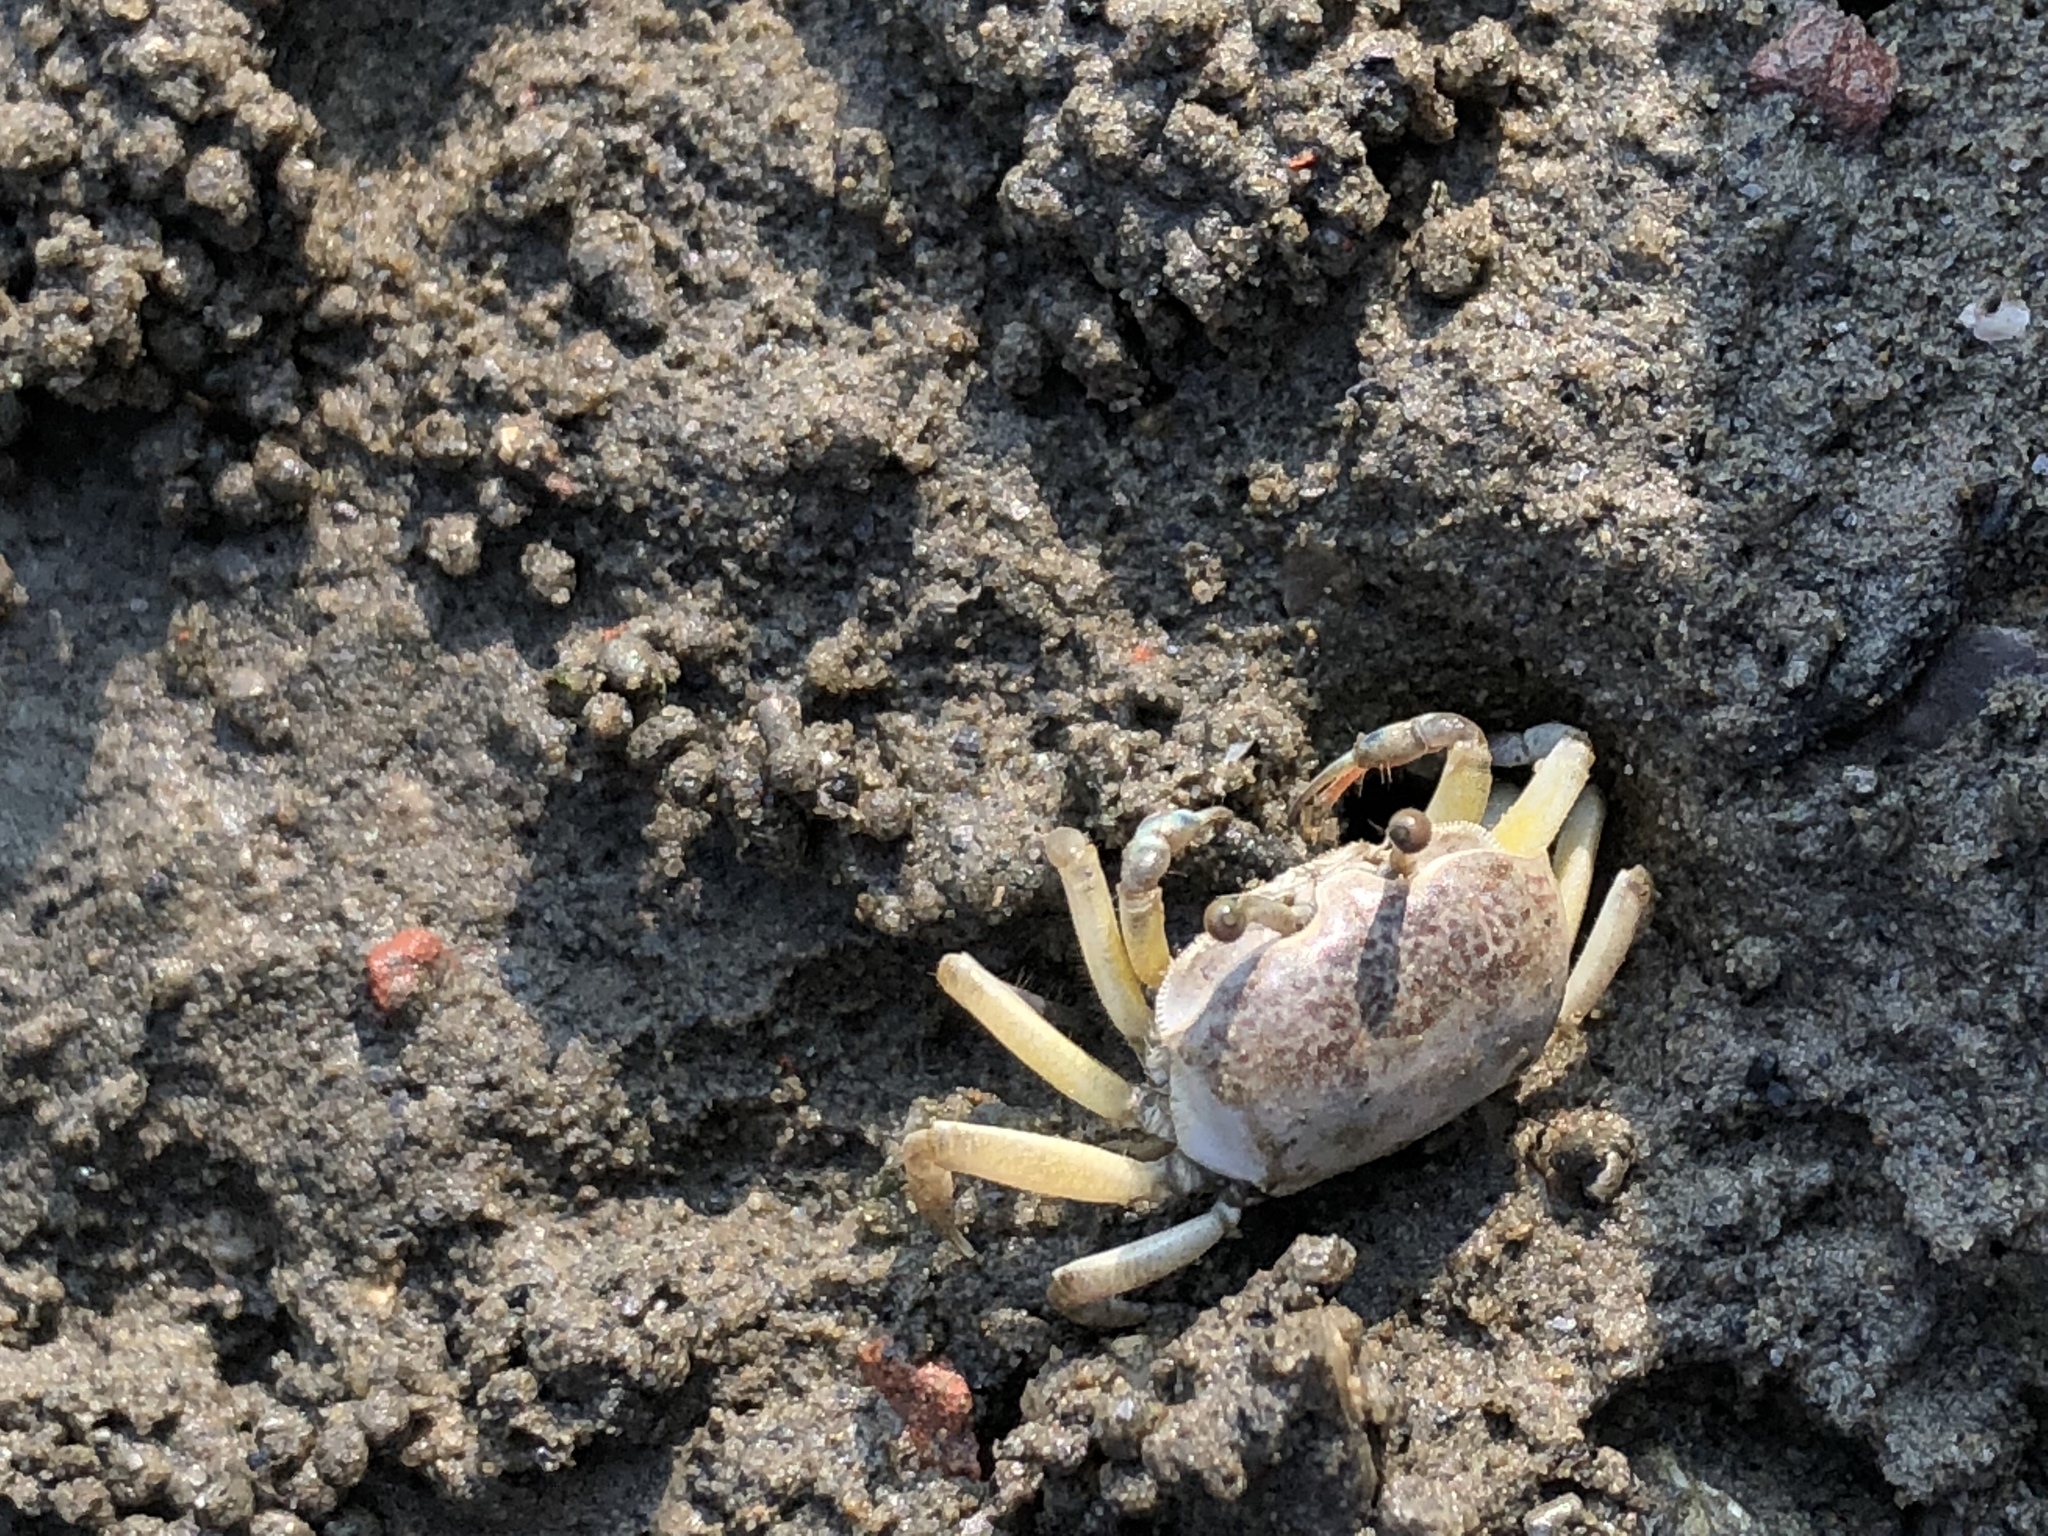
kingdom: Animalia
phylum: Arthropoda
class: Malacostraca
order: Decapoda
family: Ocypodidae
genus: Austruca
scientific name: Austruca lactea
